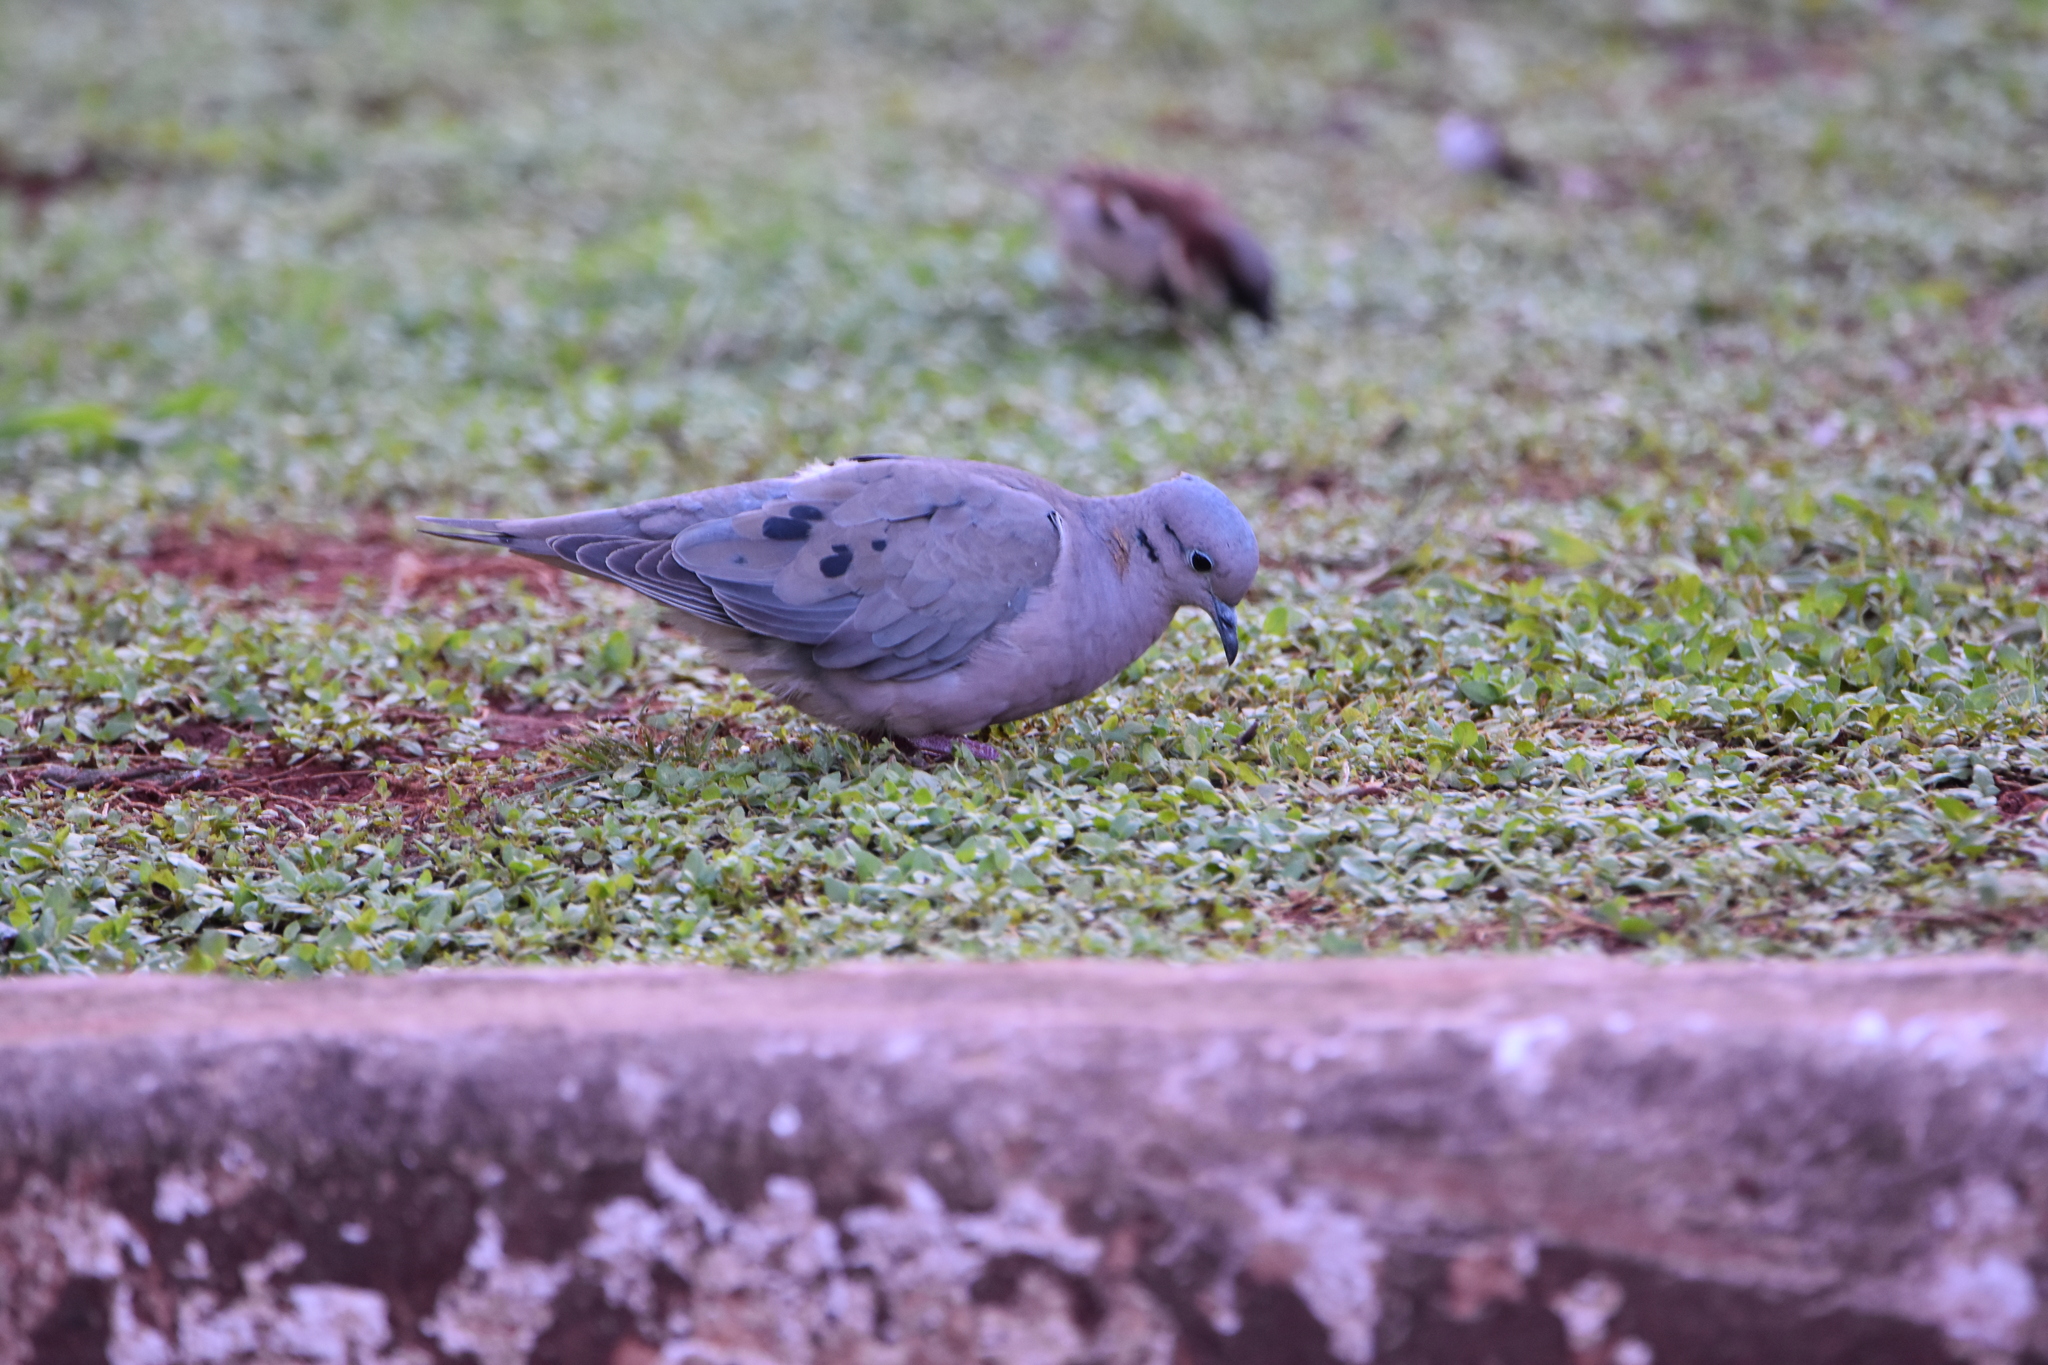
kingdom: Animalia
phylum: Chordata
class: Aves
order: Columbiformes
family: Columbidae
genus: Zenaida
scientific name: Zenaida auriculata
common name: Eared dove
